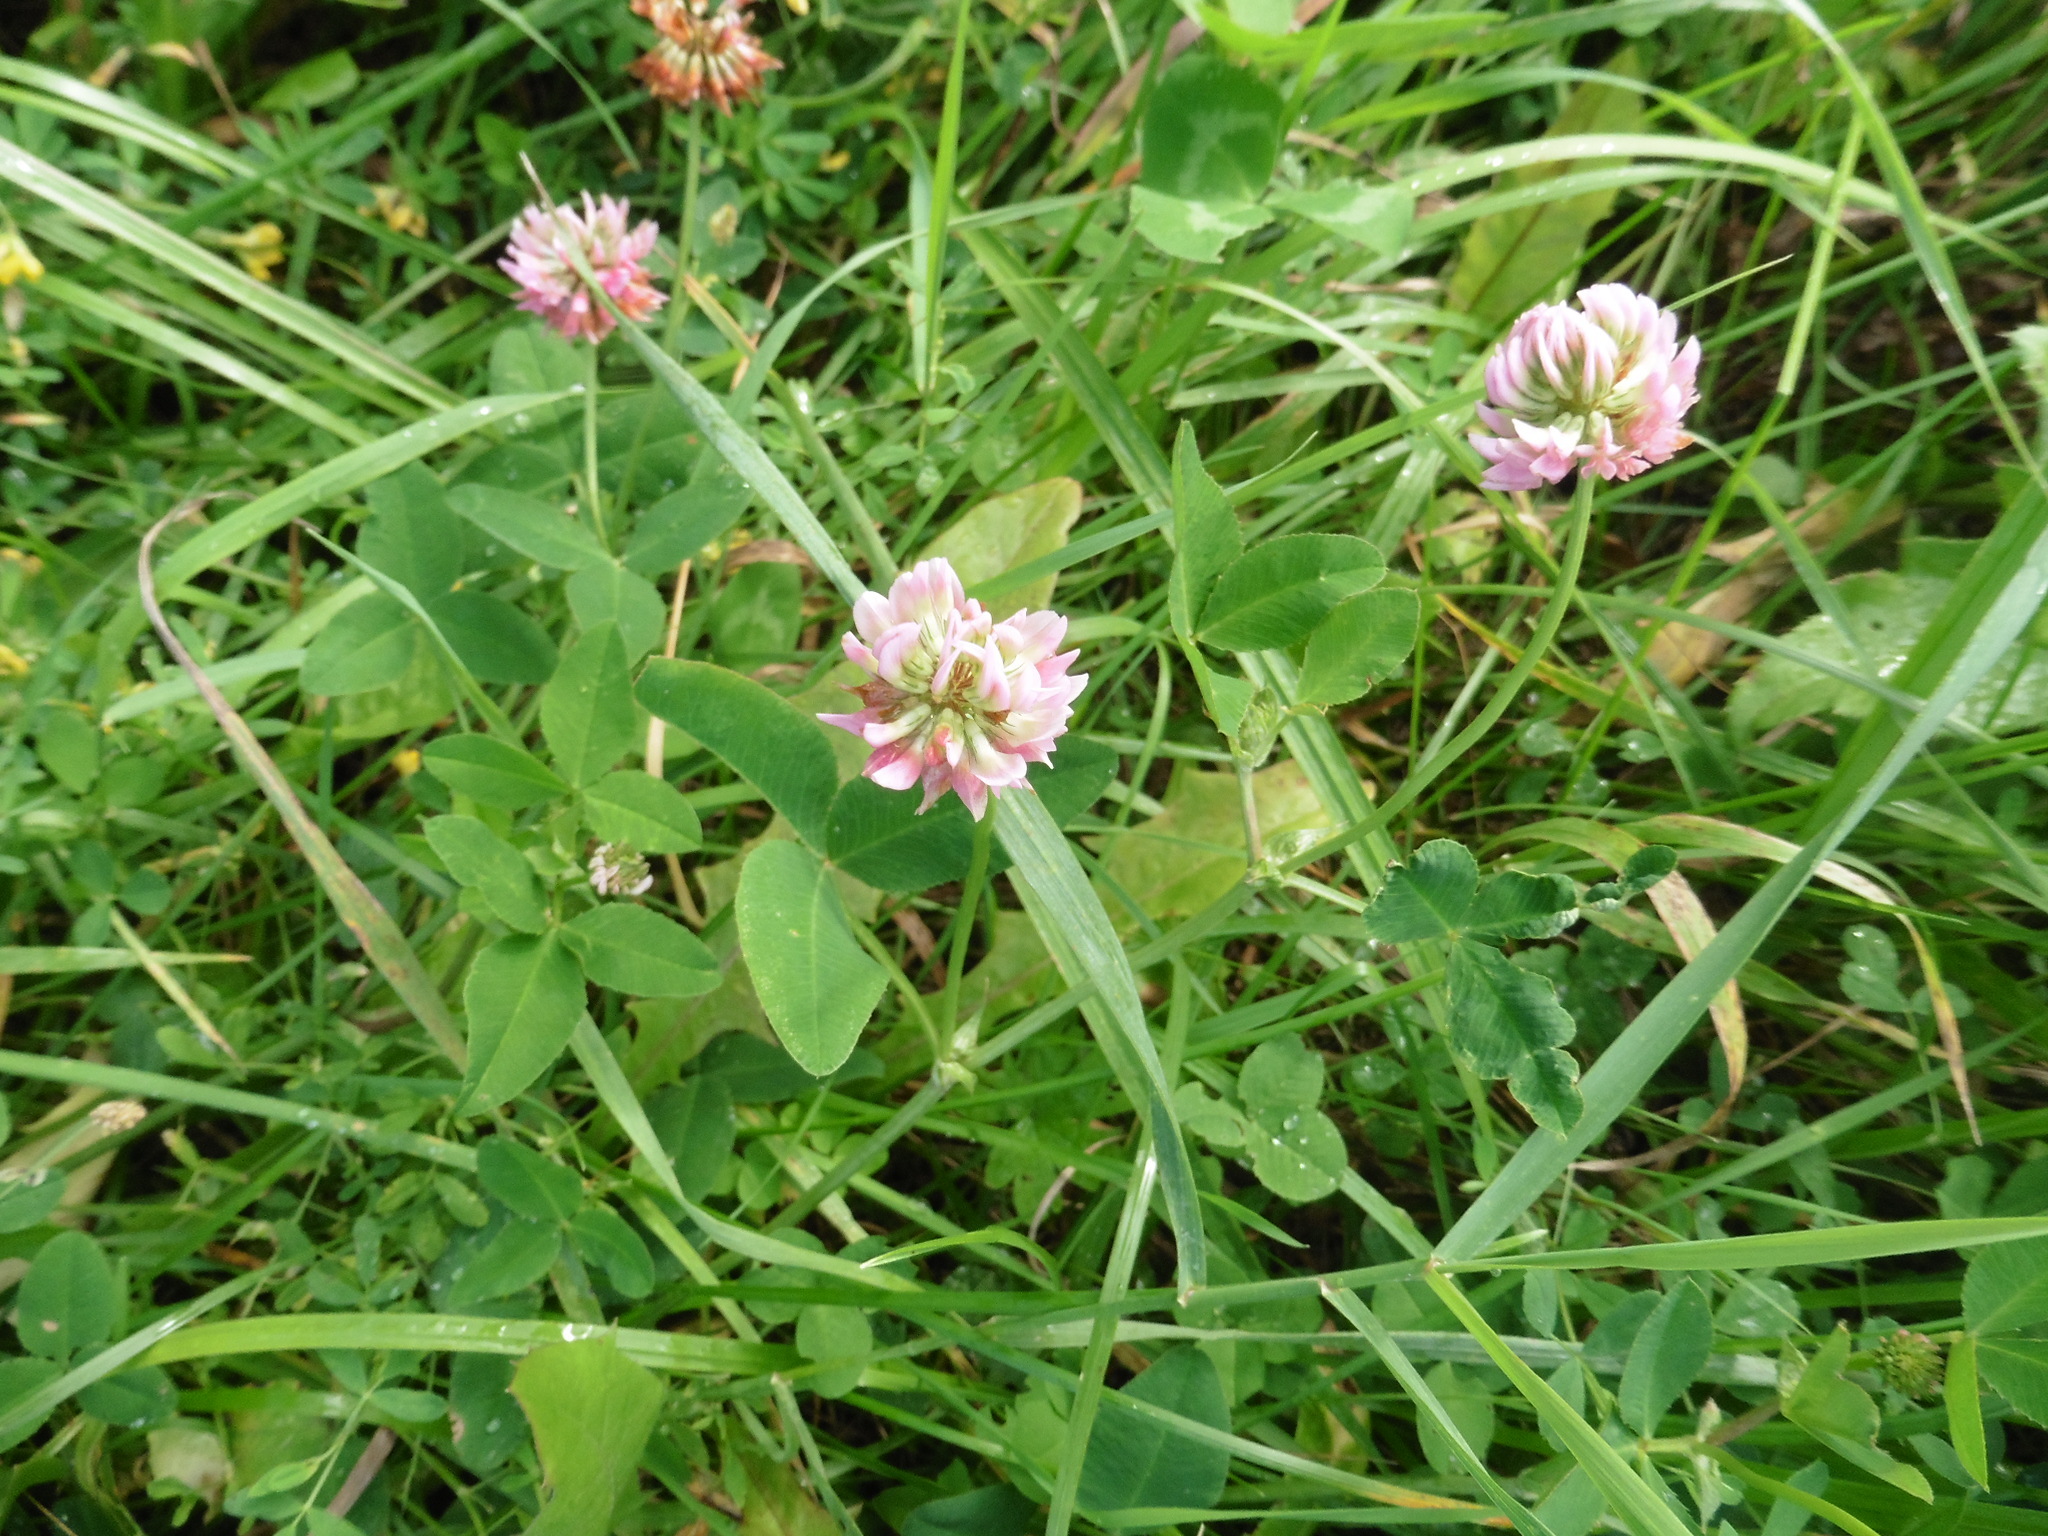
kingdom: Plantae
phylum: Tracheophyta
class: Magnoliopsida
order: Fabales
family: Fabaceae
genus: Trifolium
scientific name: Trifolium hybridum
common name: Alsike clover
